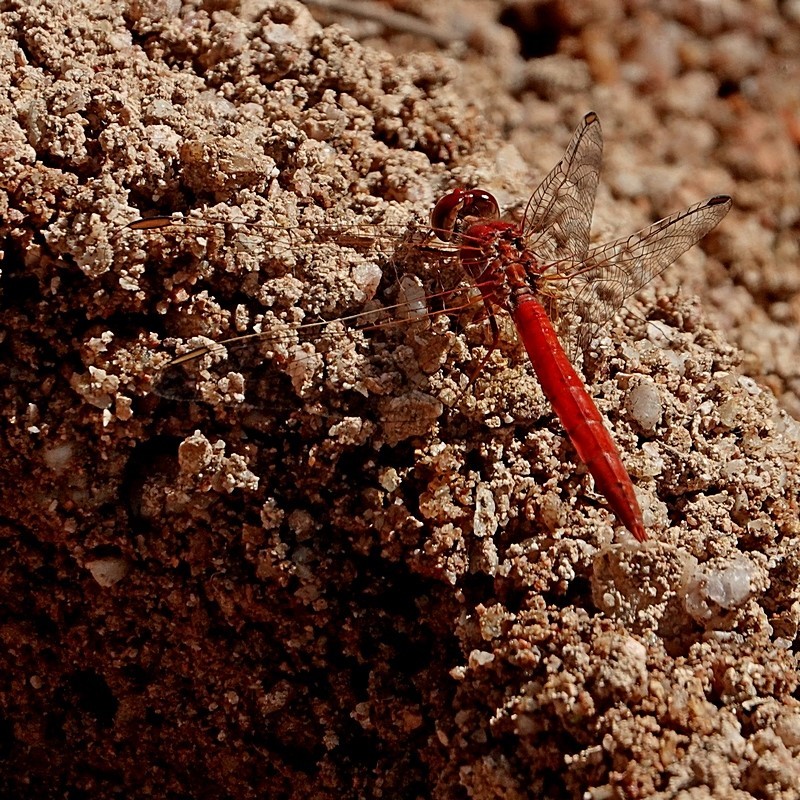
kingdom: Animalia
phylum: Arthropoda
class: Insecta
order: Odonata
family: Libellulidae
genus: Diplacodes
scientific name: Diplacodes haematodes
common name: Scarlet percher
